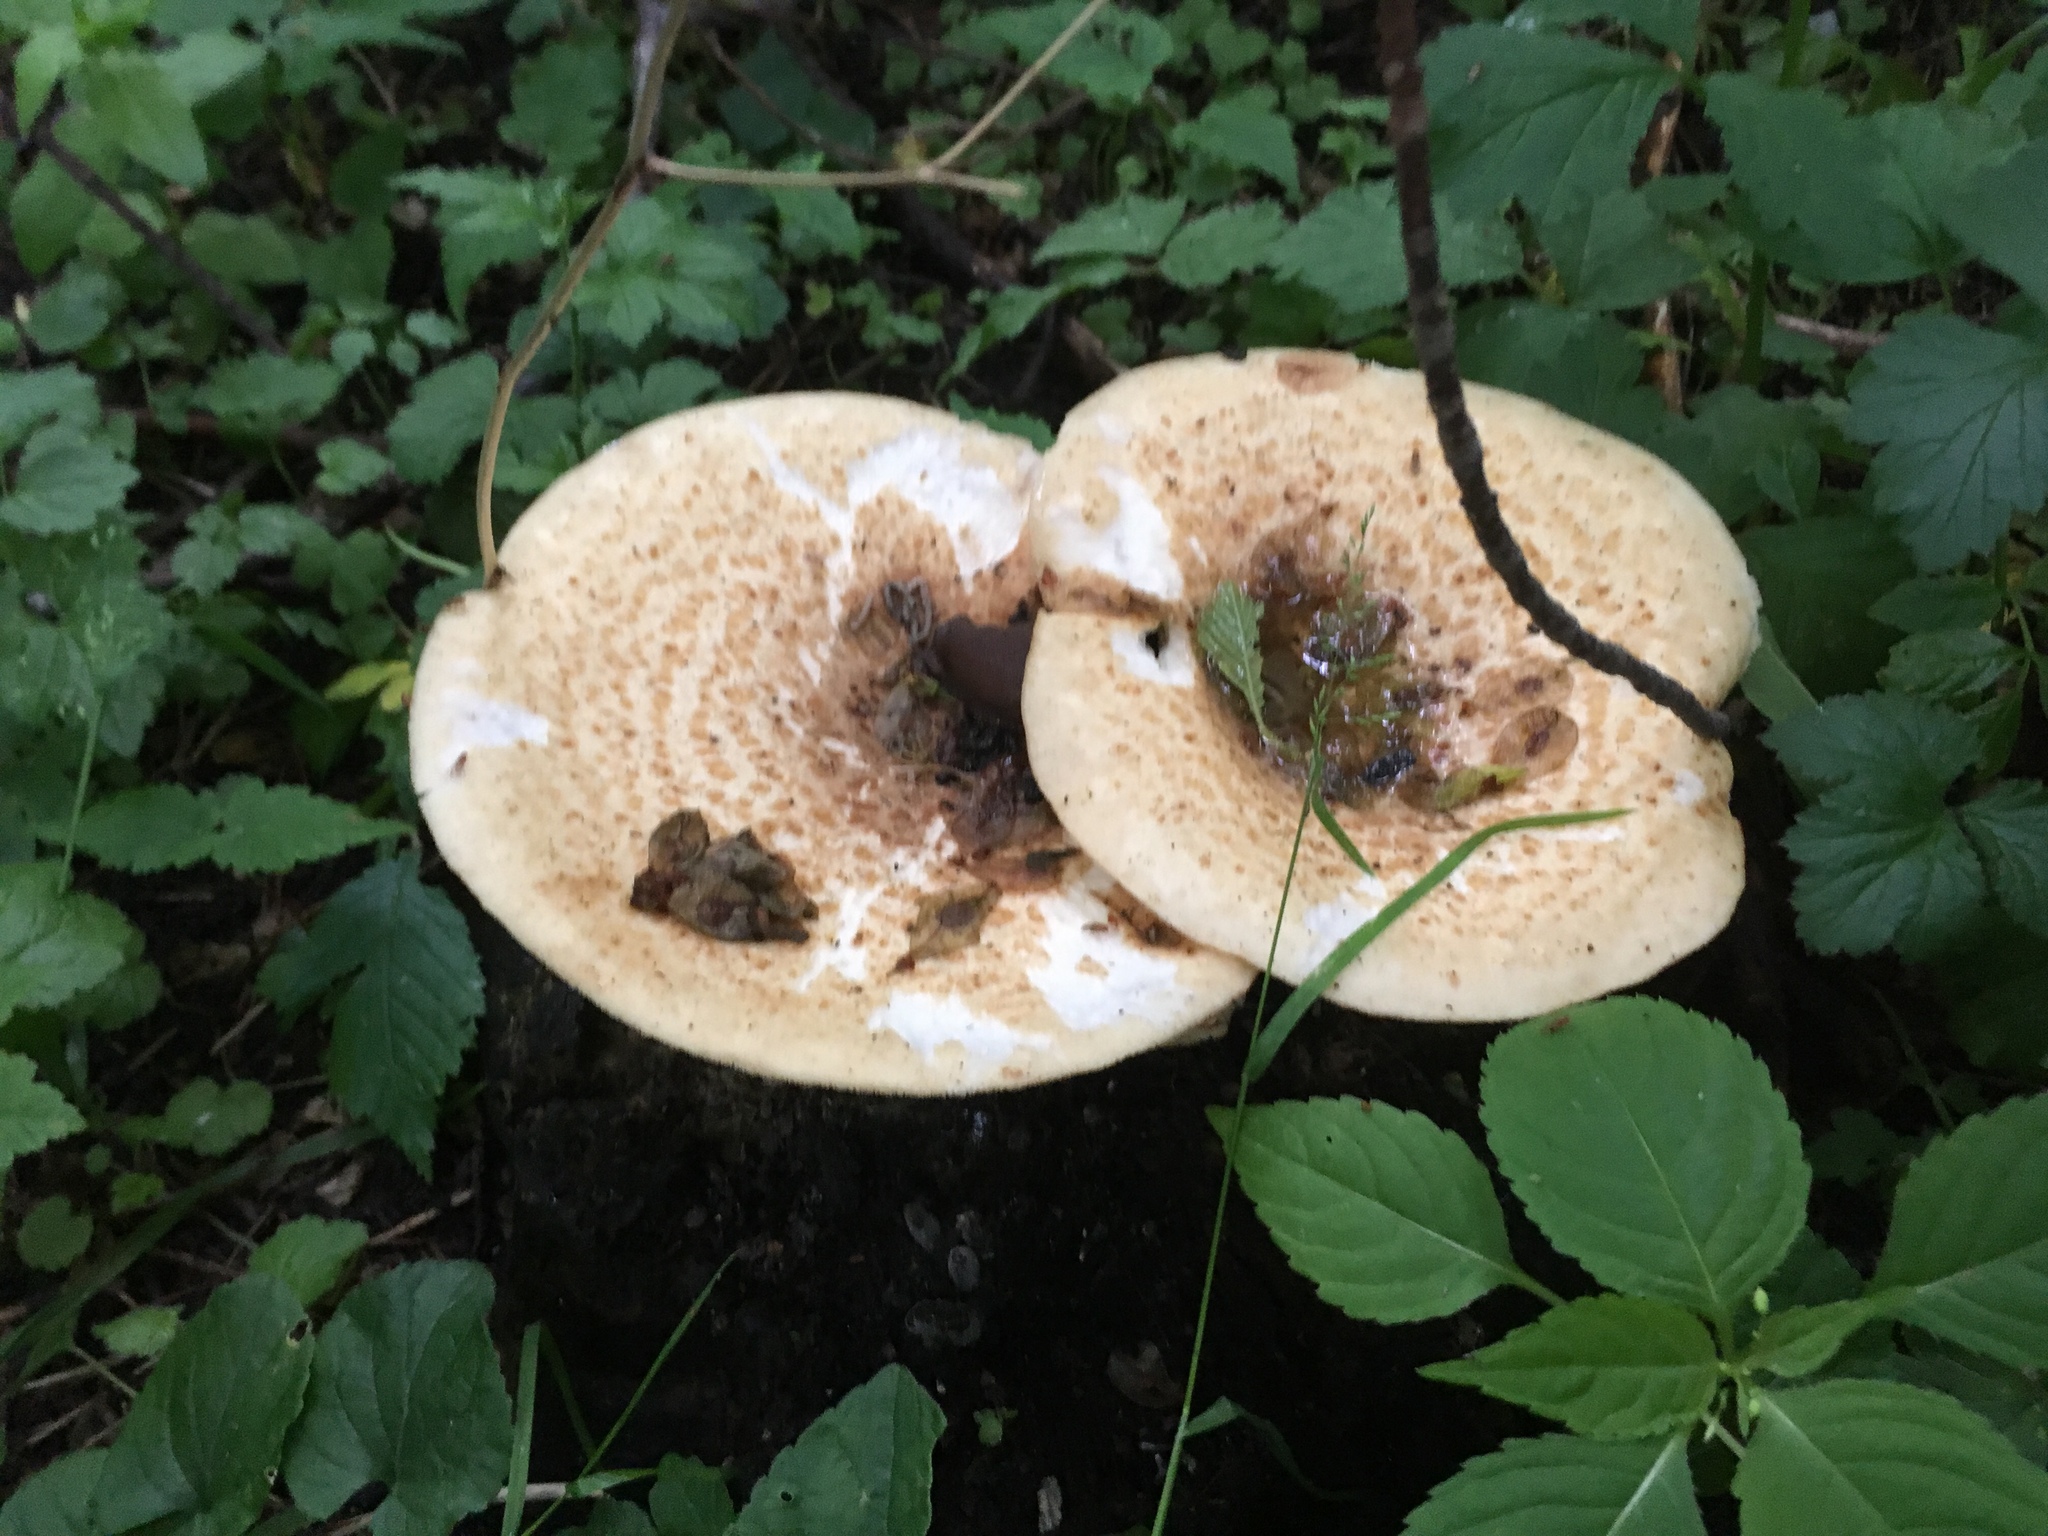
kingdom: Fungi
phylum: Basidiomycota
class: Agaricomycetes
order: Polyporales
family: Polyporaceae
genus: Cerioporus
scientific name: Cerioporus squamosus
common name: Dryad's saddle
